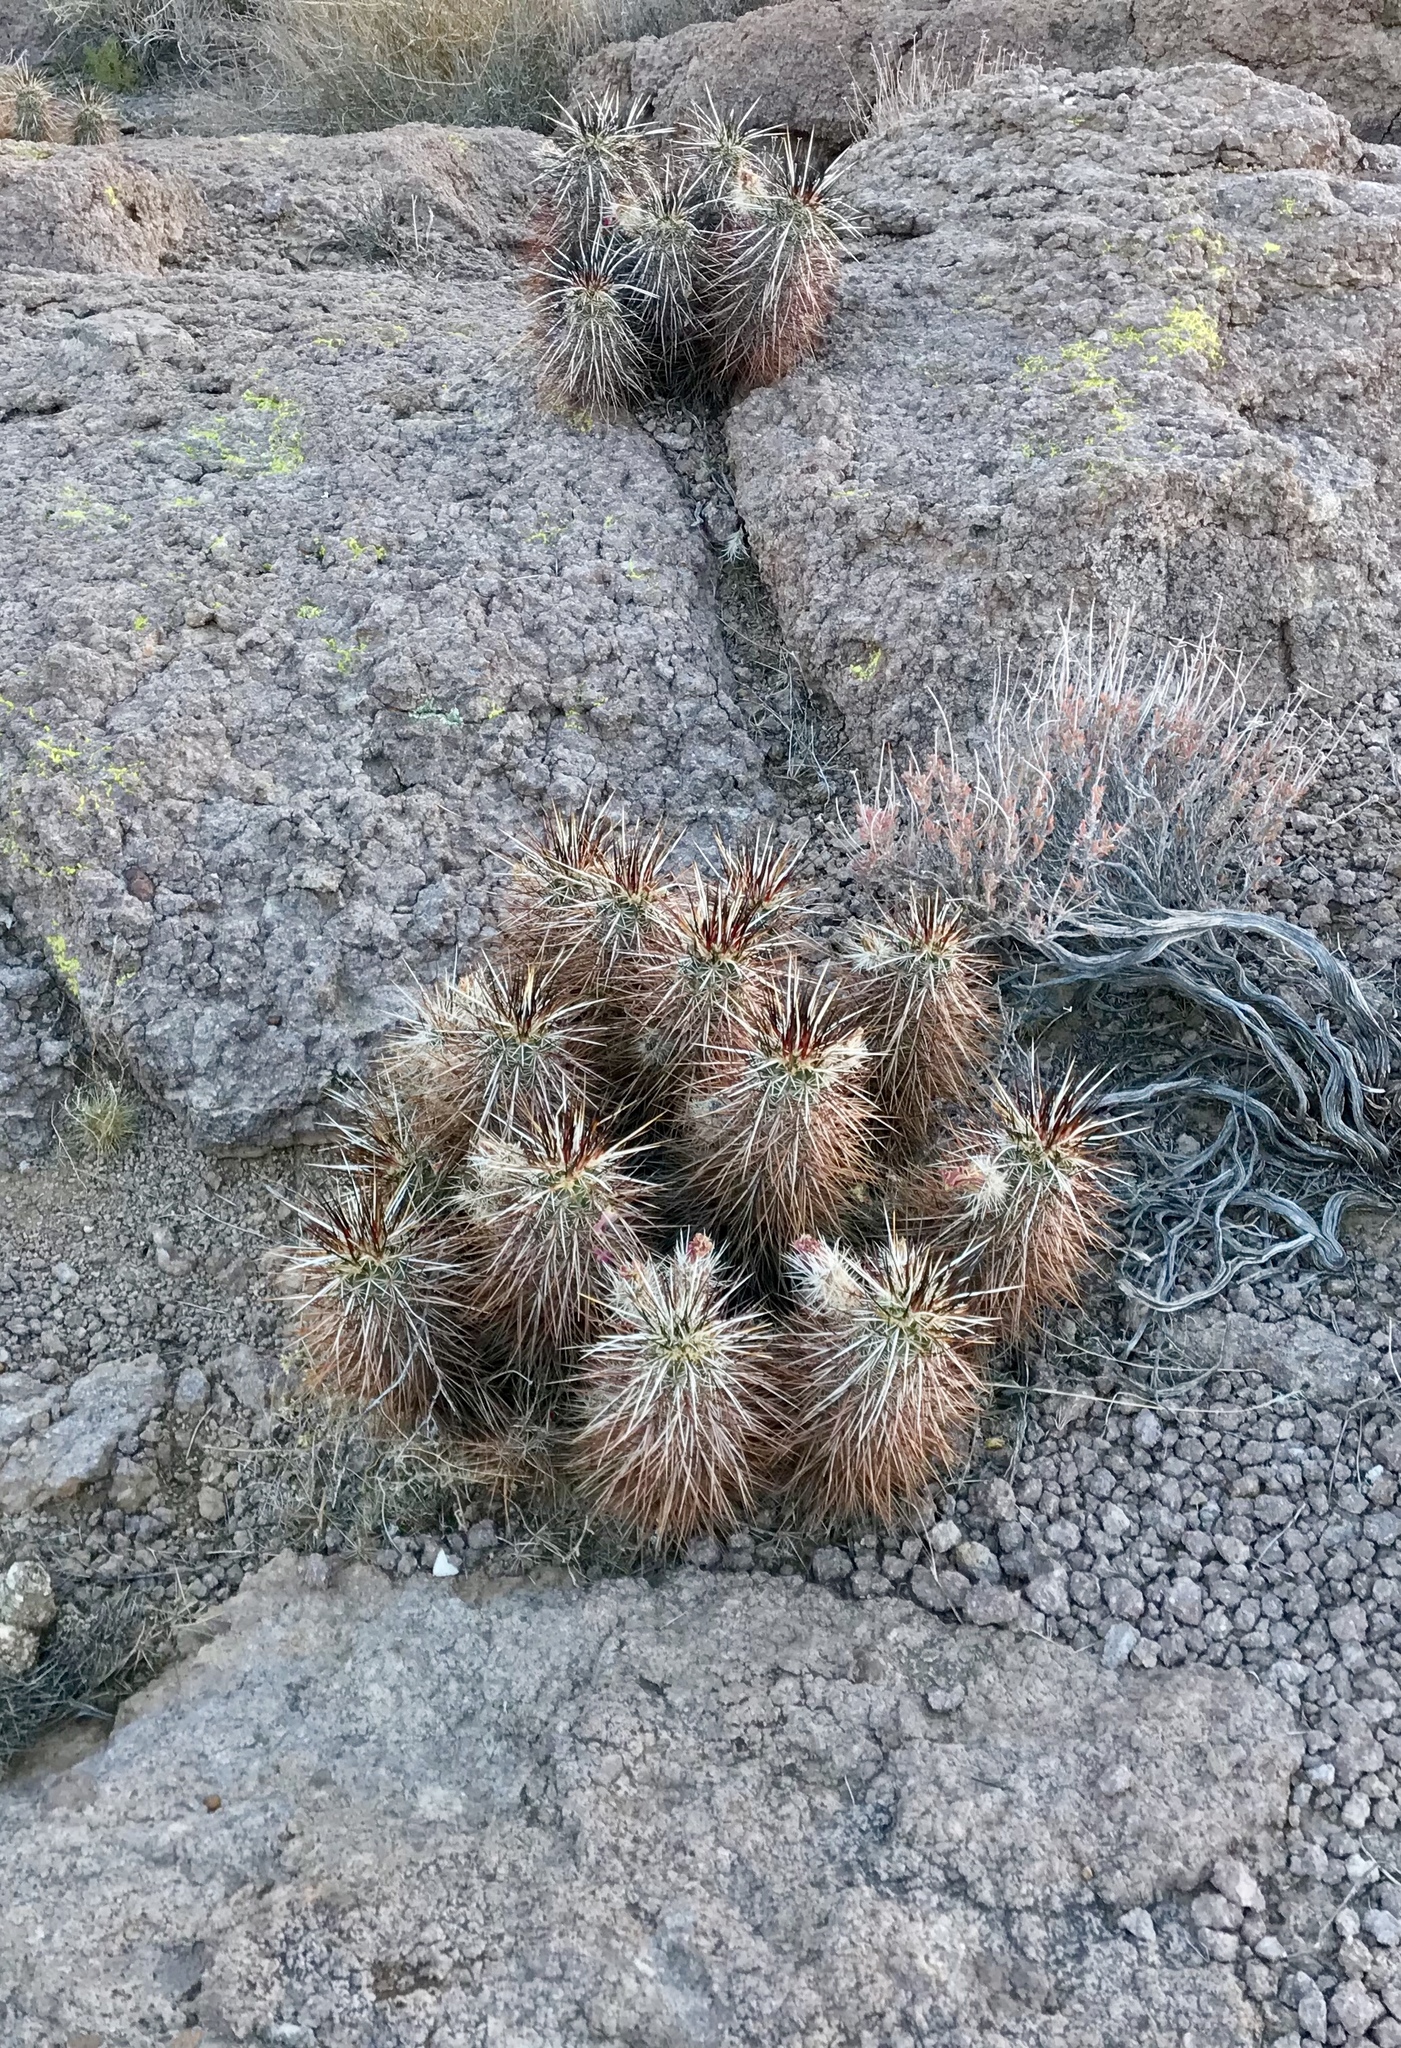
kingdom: Plantae
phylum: Tracheophyta
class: Magnoliopsida
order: Caryophyllales
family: Cactaceae
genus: Echinocereus
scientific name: Echinocereus engelmannii
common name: Engelmann's hedgehog cactus
